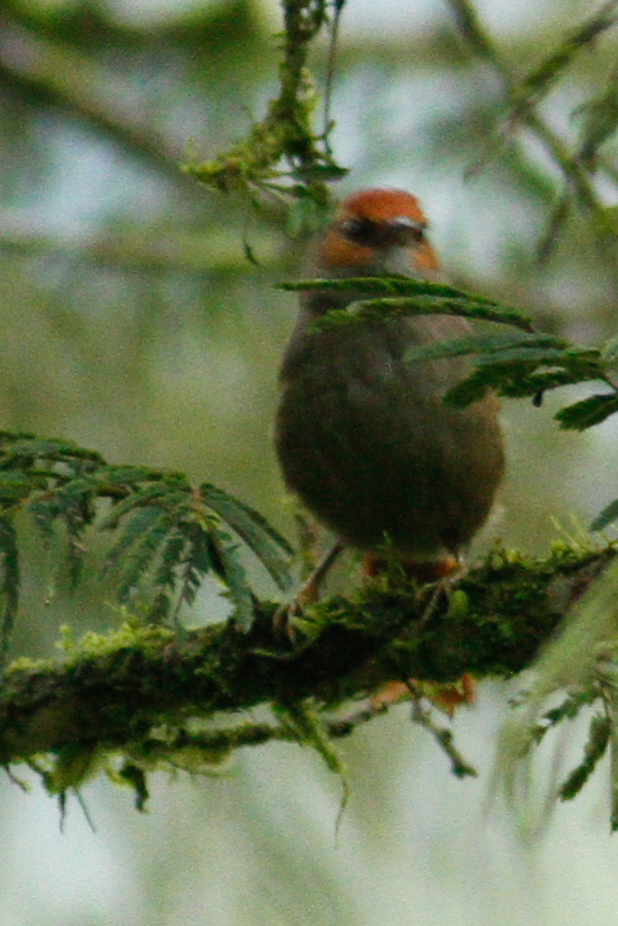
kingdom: Animalia
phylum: Chordata
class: Aves
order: Passeriformes
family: Furnariidae
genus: Cranioleuca
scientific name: Cranioleuca erythrops
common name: Red-faced spinetail
